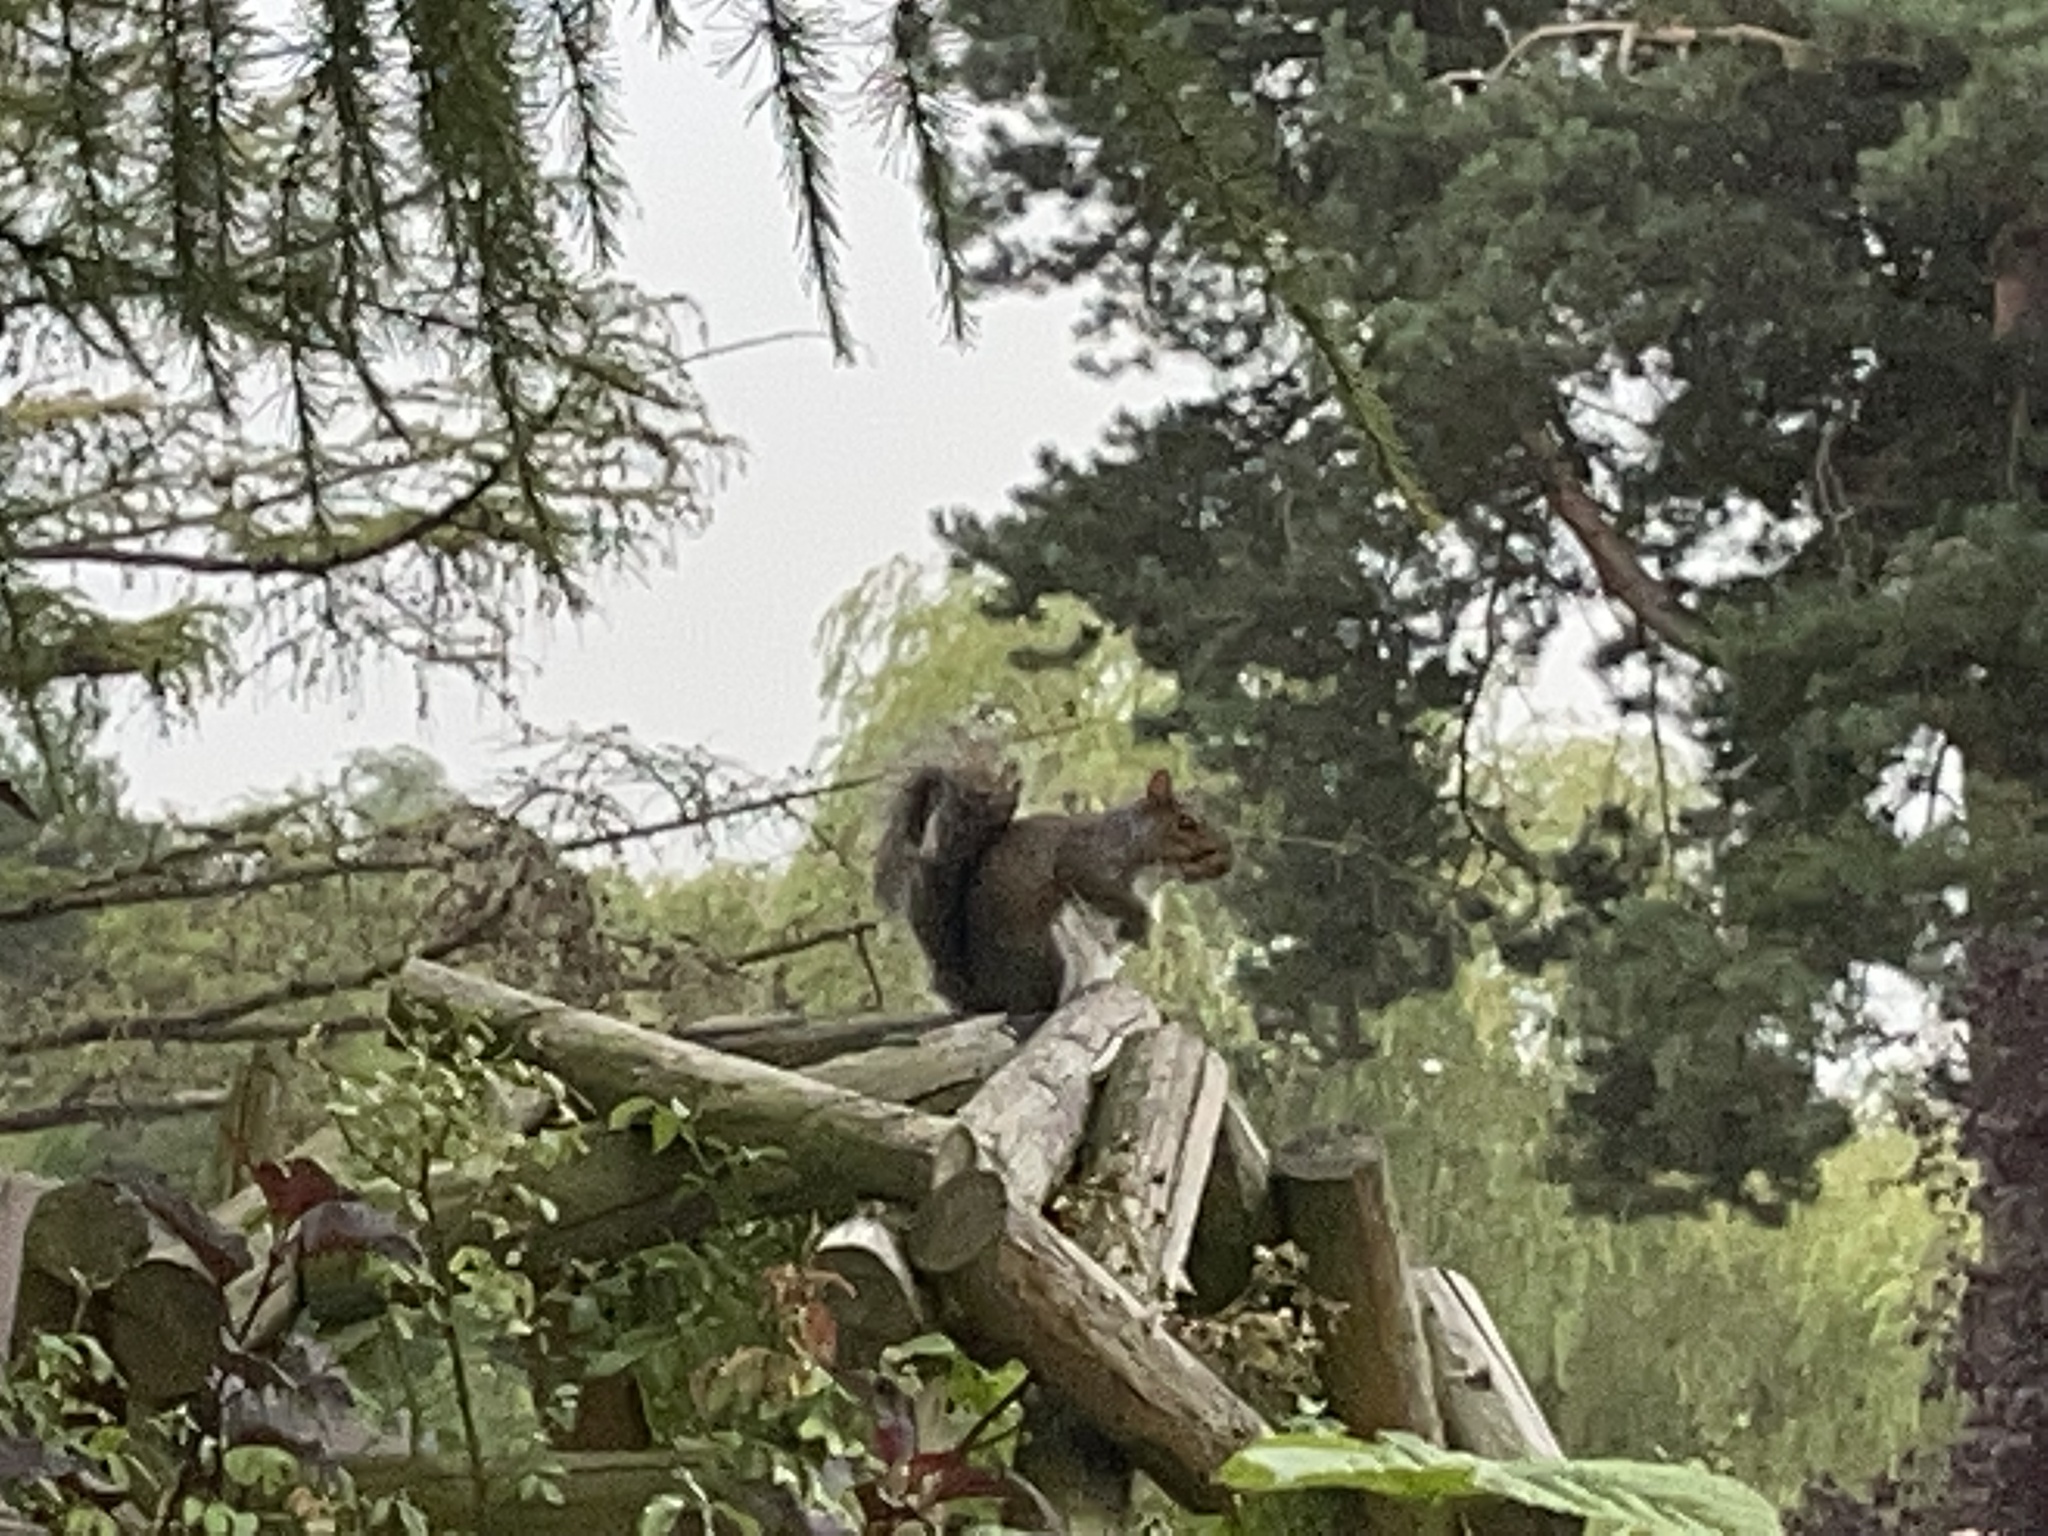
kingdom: Animalia
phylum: Chordata
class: Mammalia
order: Rodentia
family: Sciuridae
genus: Sciurus
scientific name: Sciurus carolinensis
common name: Eastern gray squirrel
